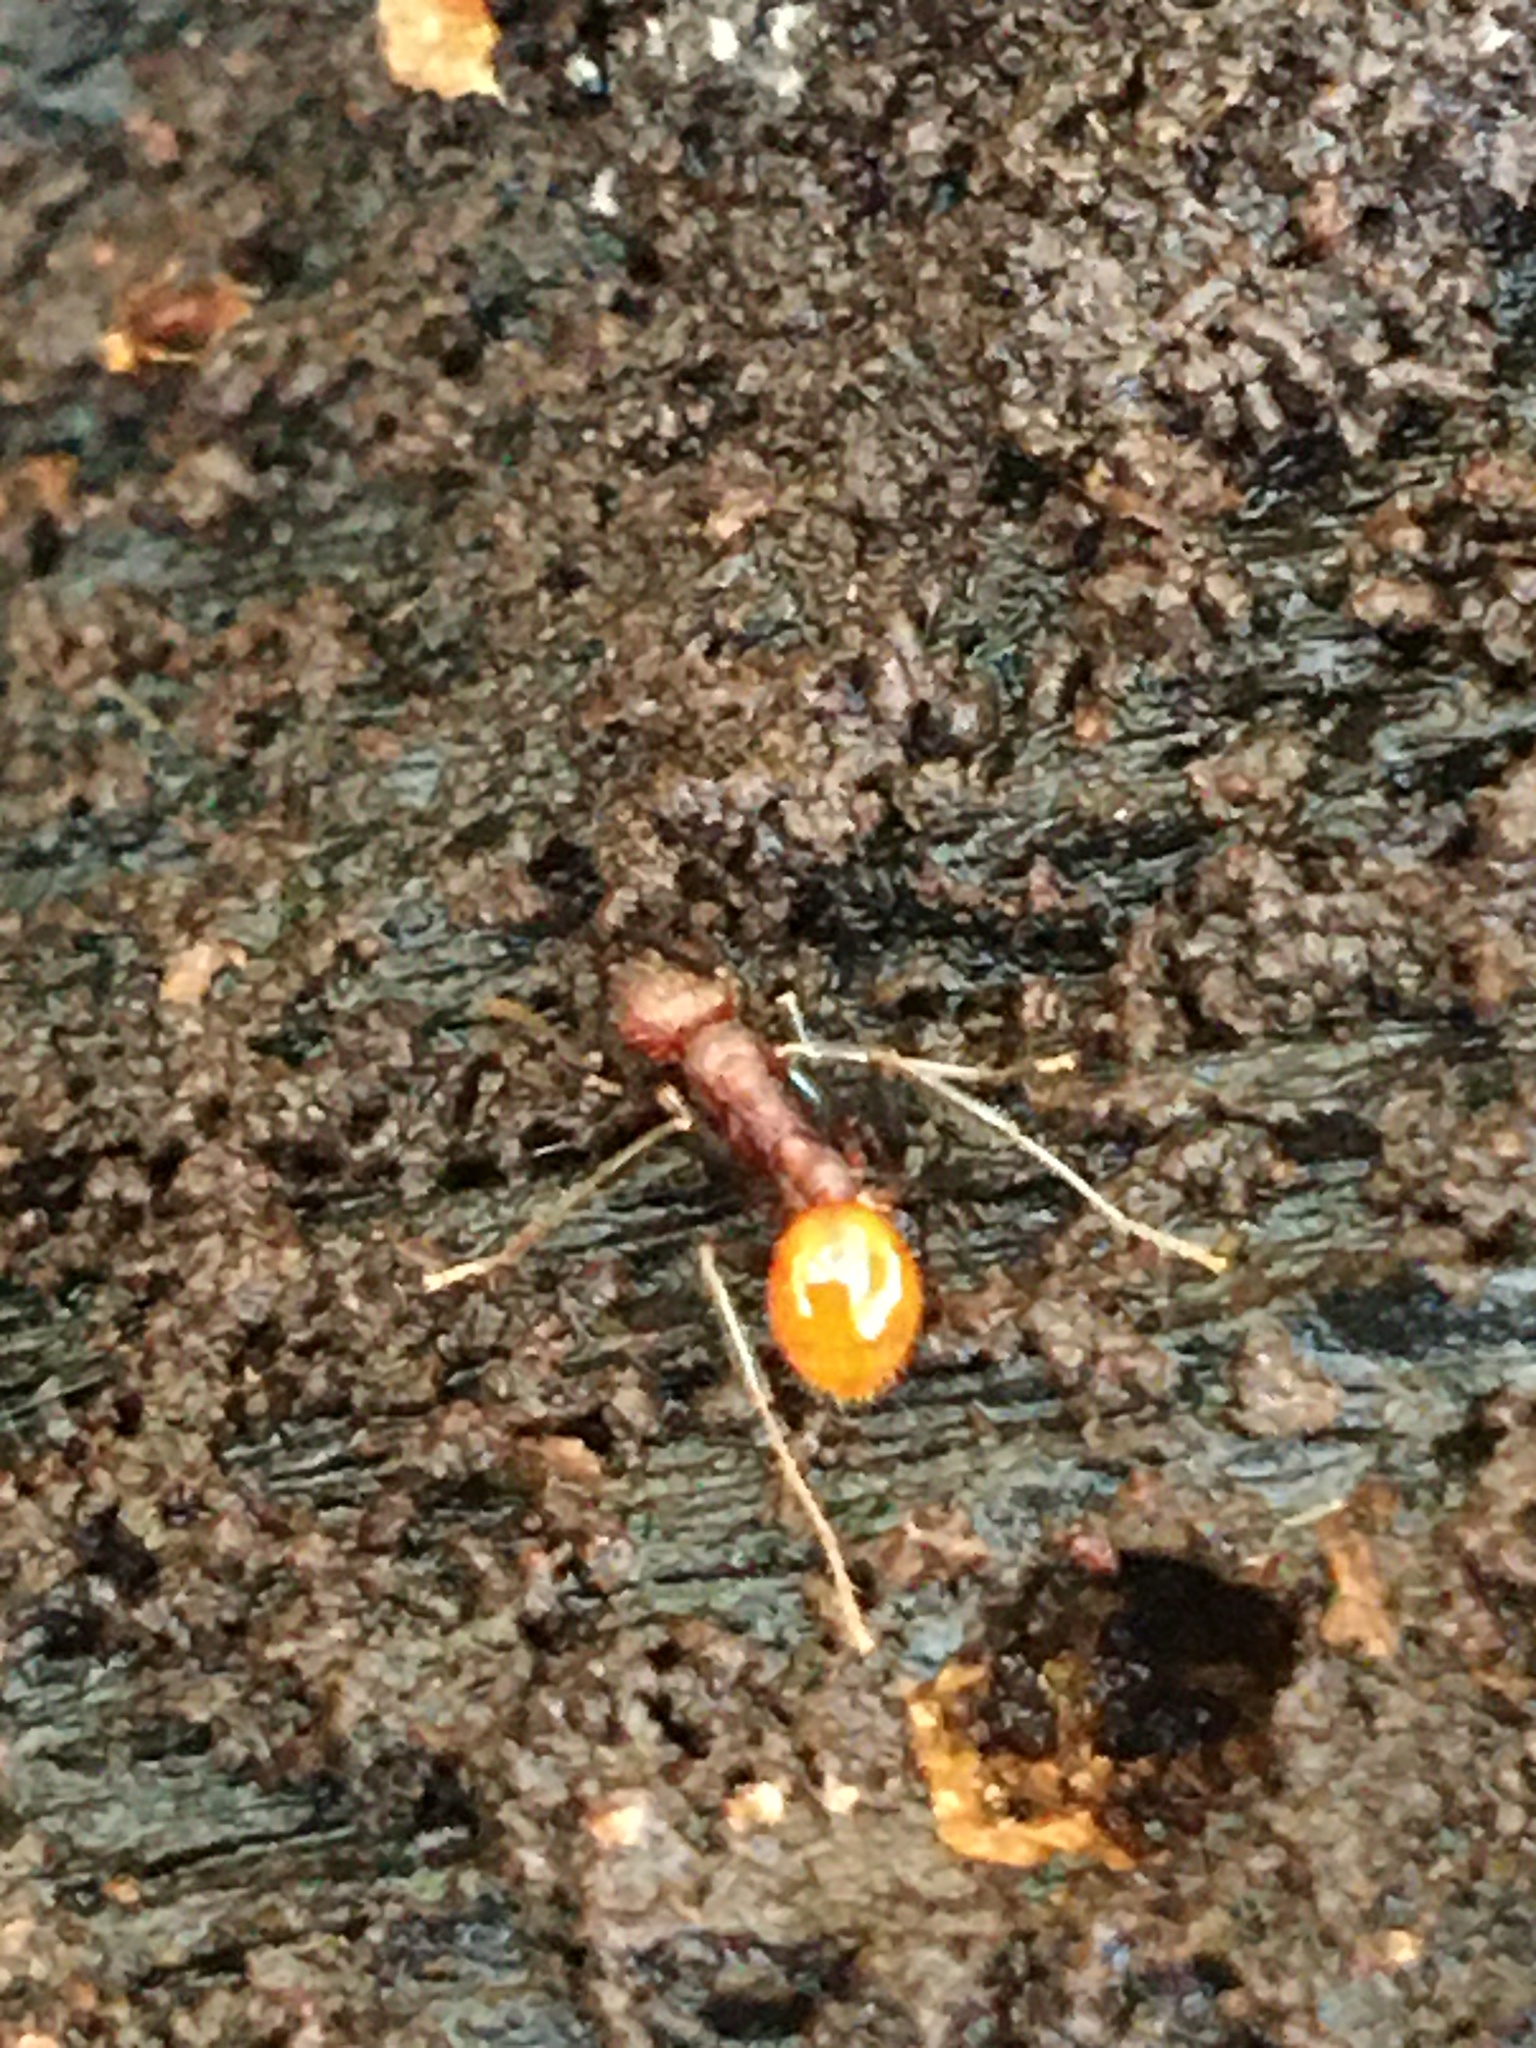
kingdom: Animalia
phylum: Arthropoda
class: Insecta
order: Hymenoptera
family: Formicidae
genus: Aphaenogaster
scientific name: Aphaenogaster lamellidens
